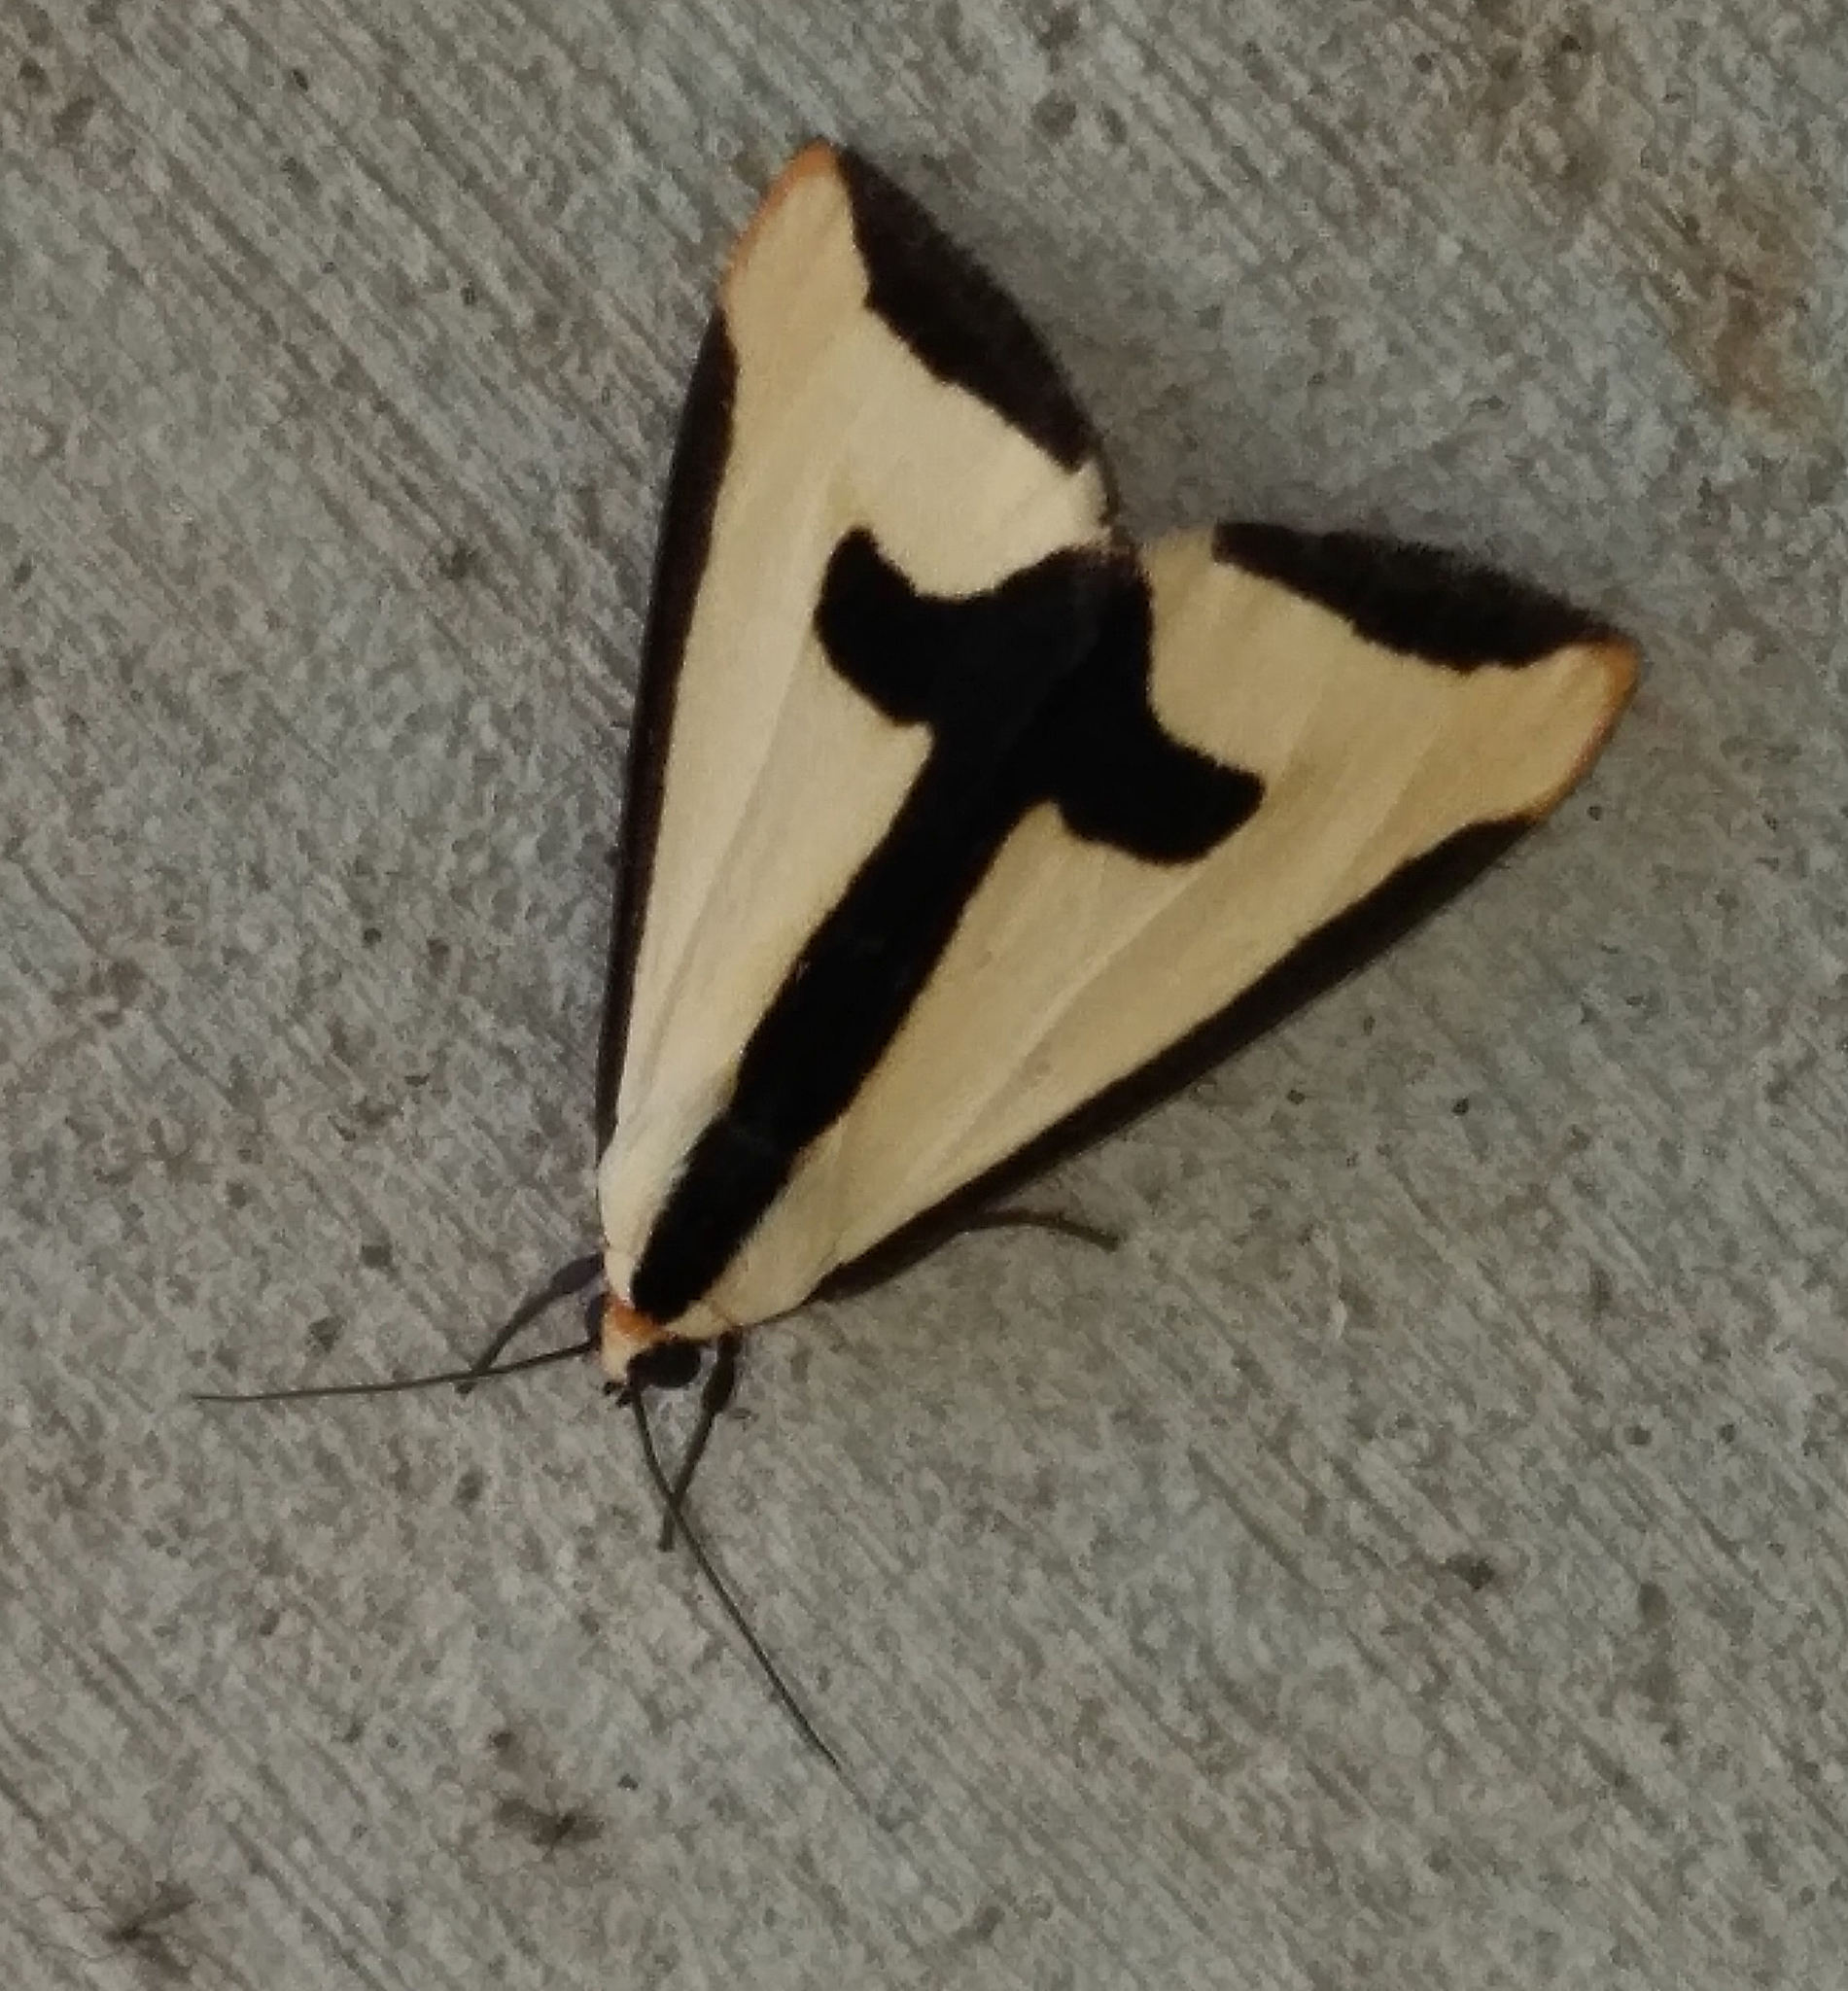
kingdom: Animalia
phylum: Arthropoda
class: Insecta
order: Lepidoptera
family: Erebidae
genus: Haploa
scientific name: Haploa clymene
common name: Clymene moth
